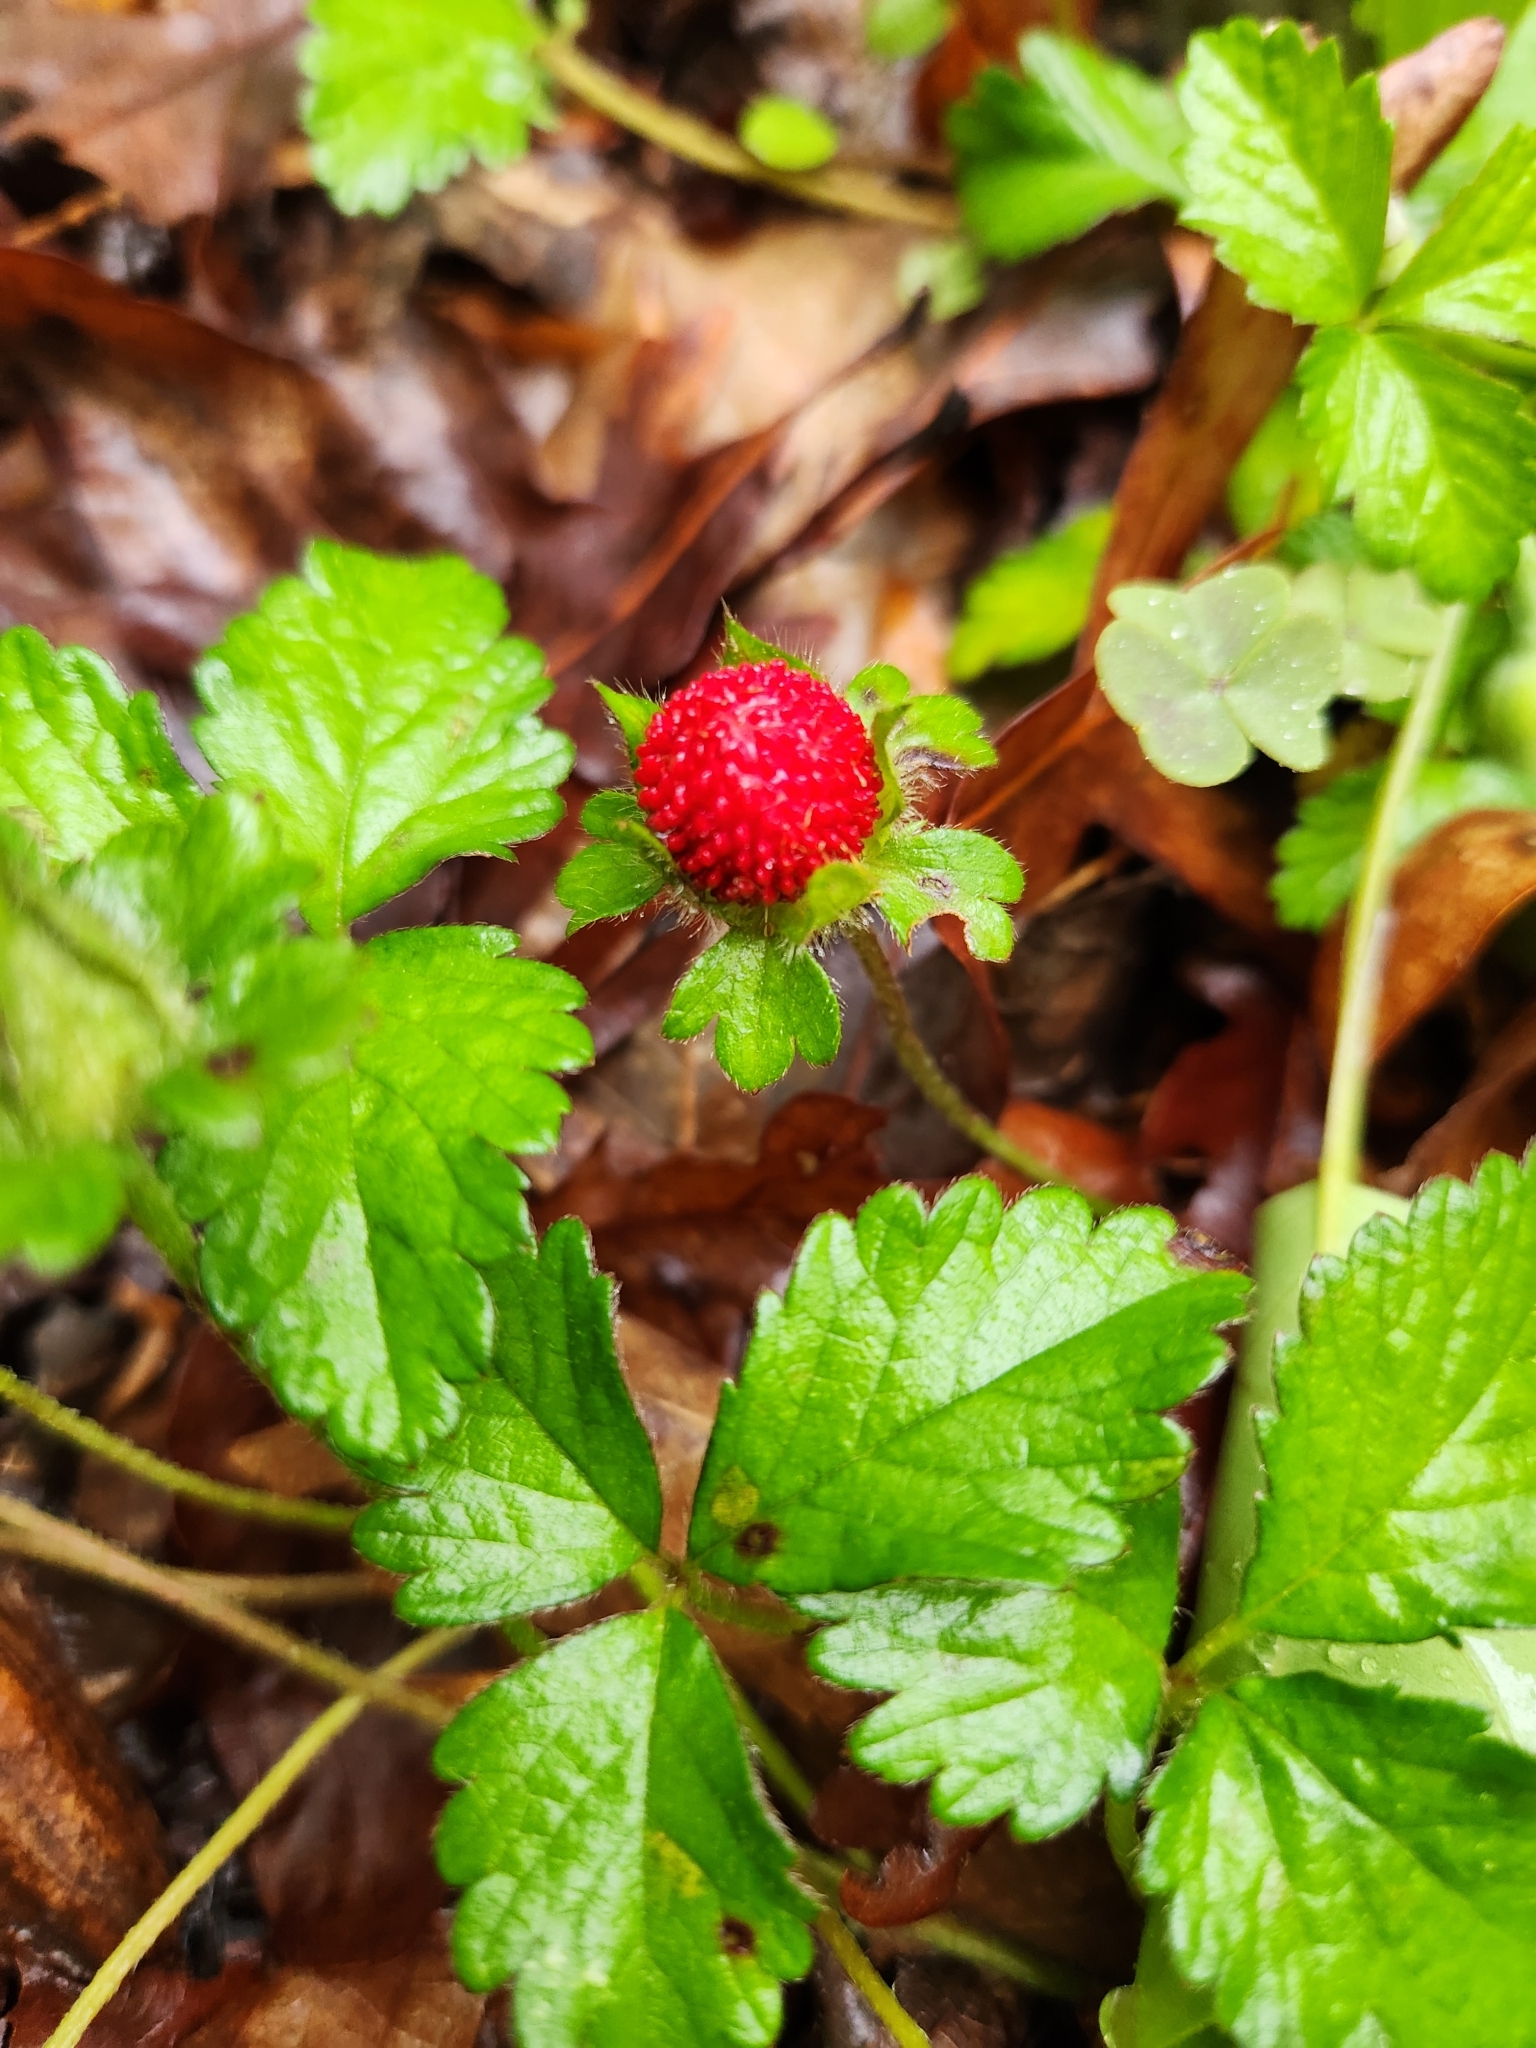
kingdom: Plantae
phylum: Tracheophyta
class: Magnoliopsida
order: Rosales
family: Rosaceae
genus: Potentilla
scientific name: Potentilla indica
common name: Yellow-flowered strawberry
